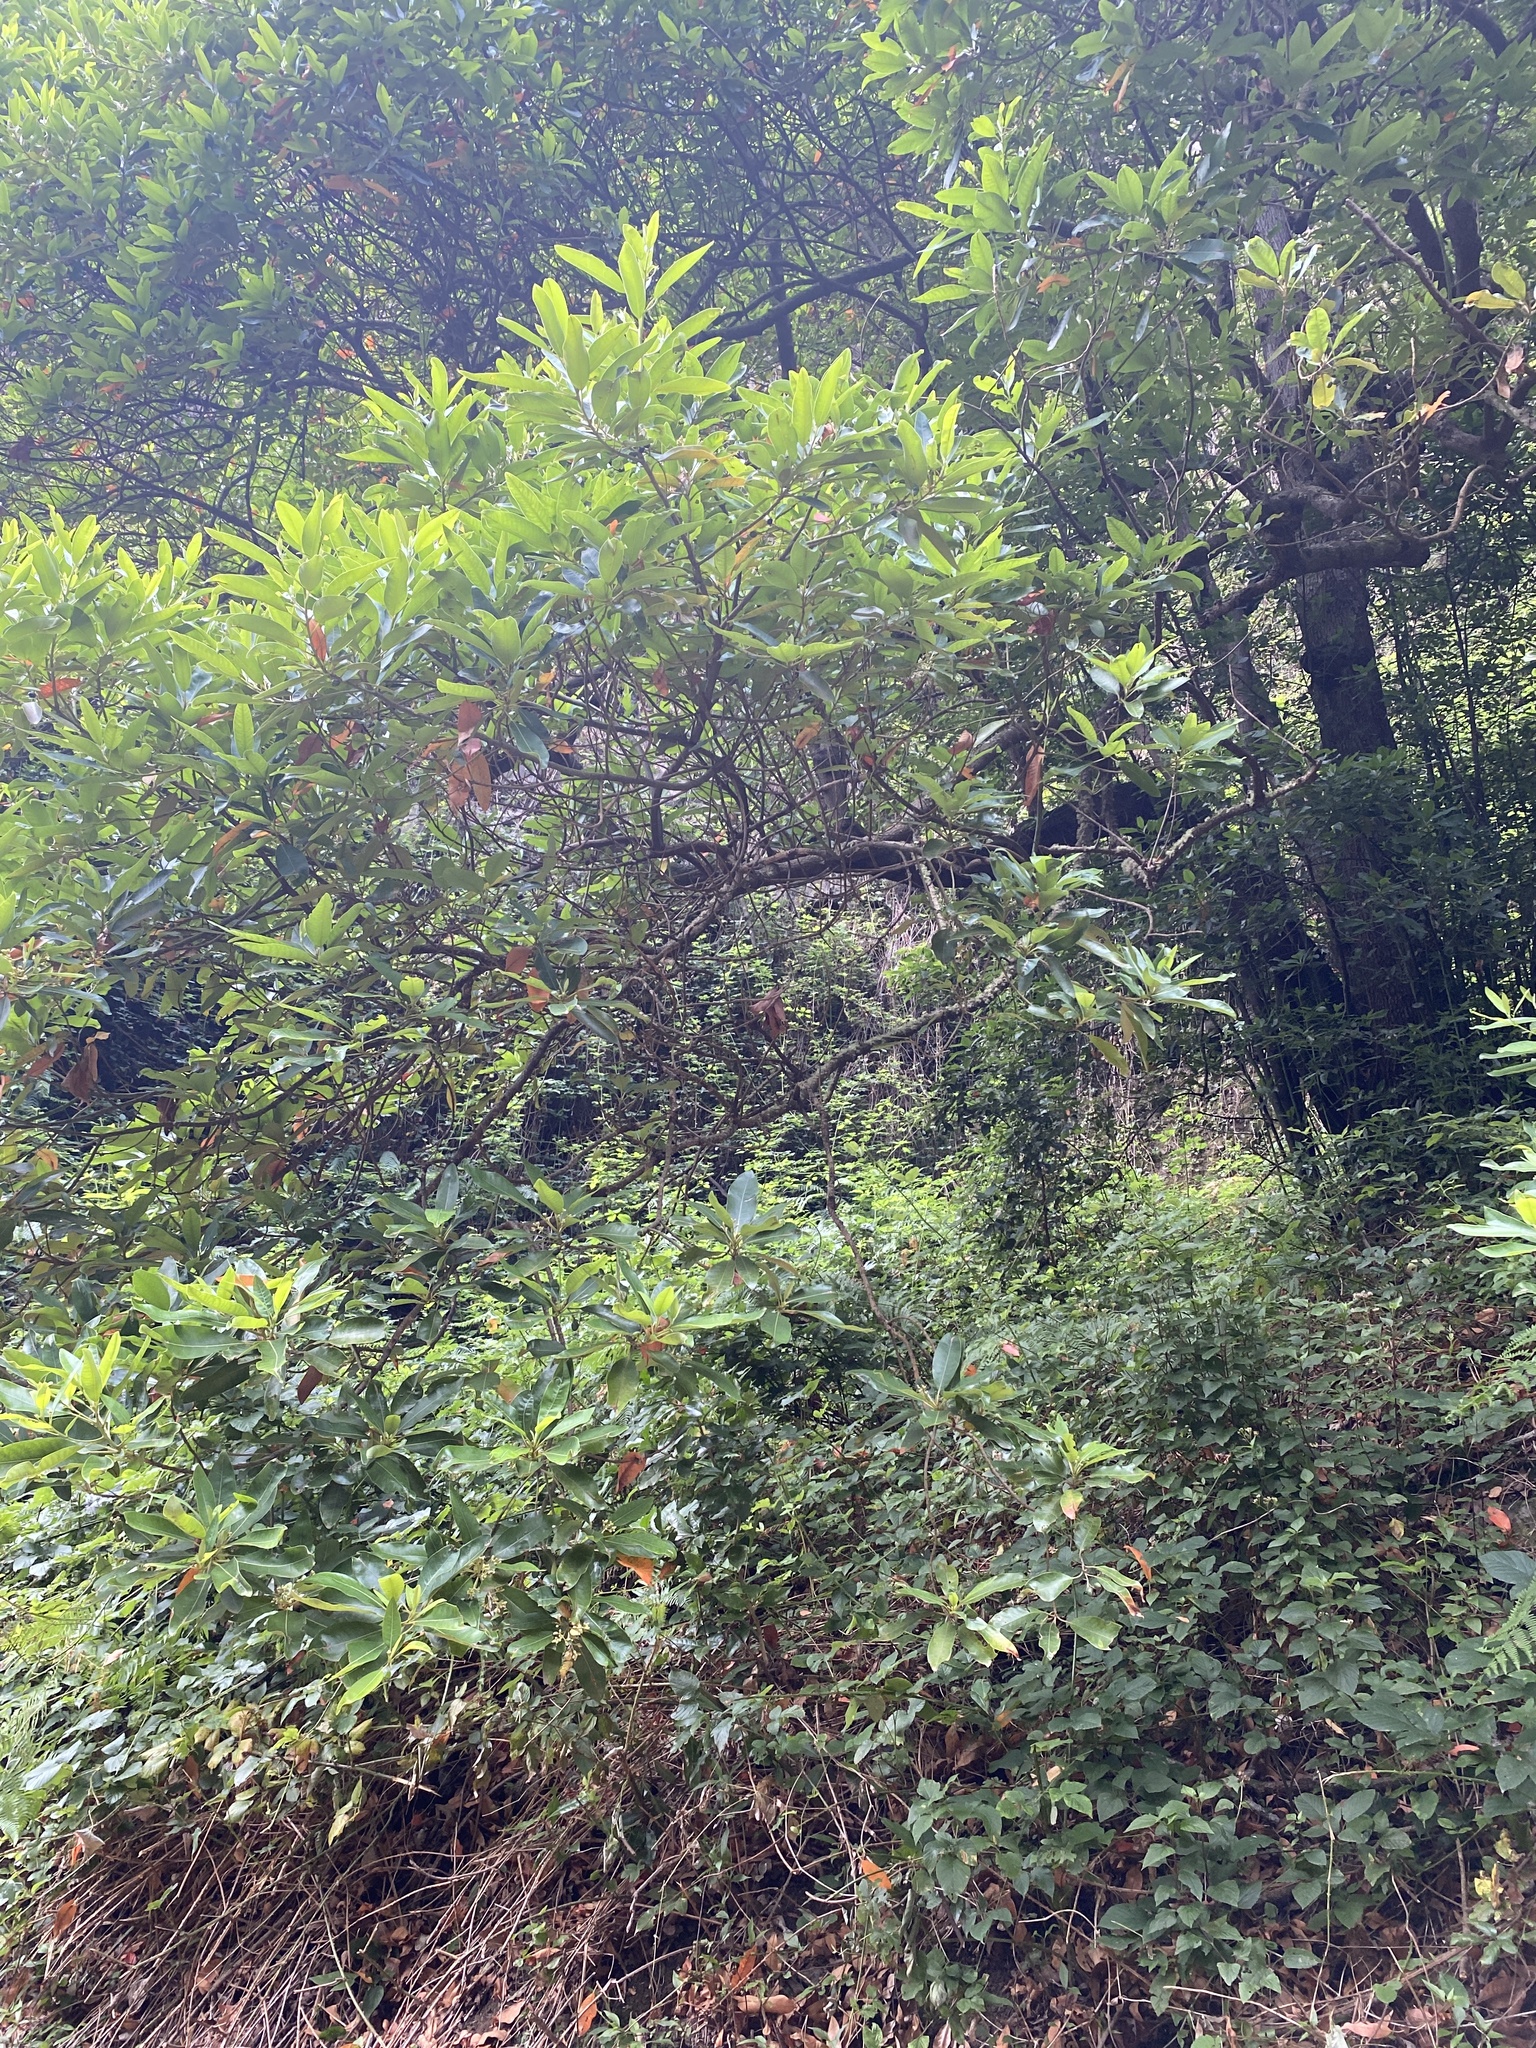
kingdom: Plantae
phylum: Tracheophyta
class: Magnoliopsida
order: Laurales
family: Lauraceae
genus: Persea
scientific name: Persea indica
